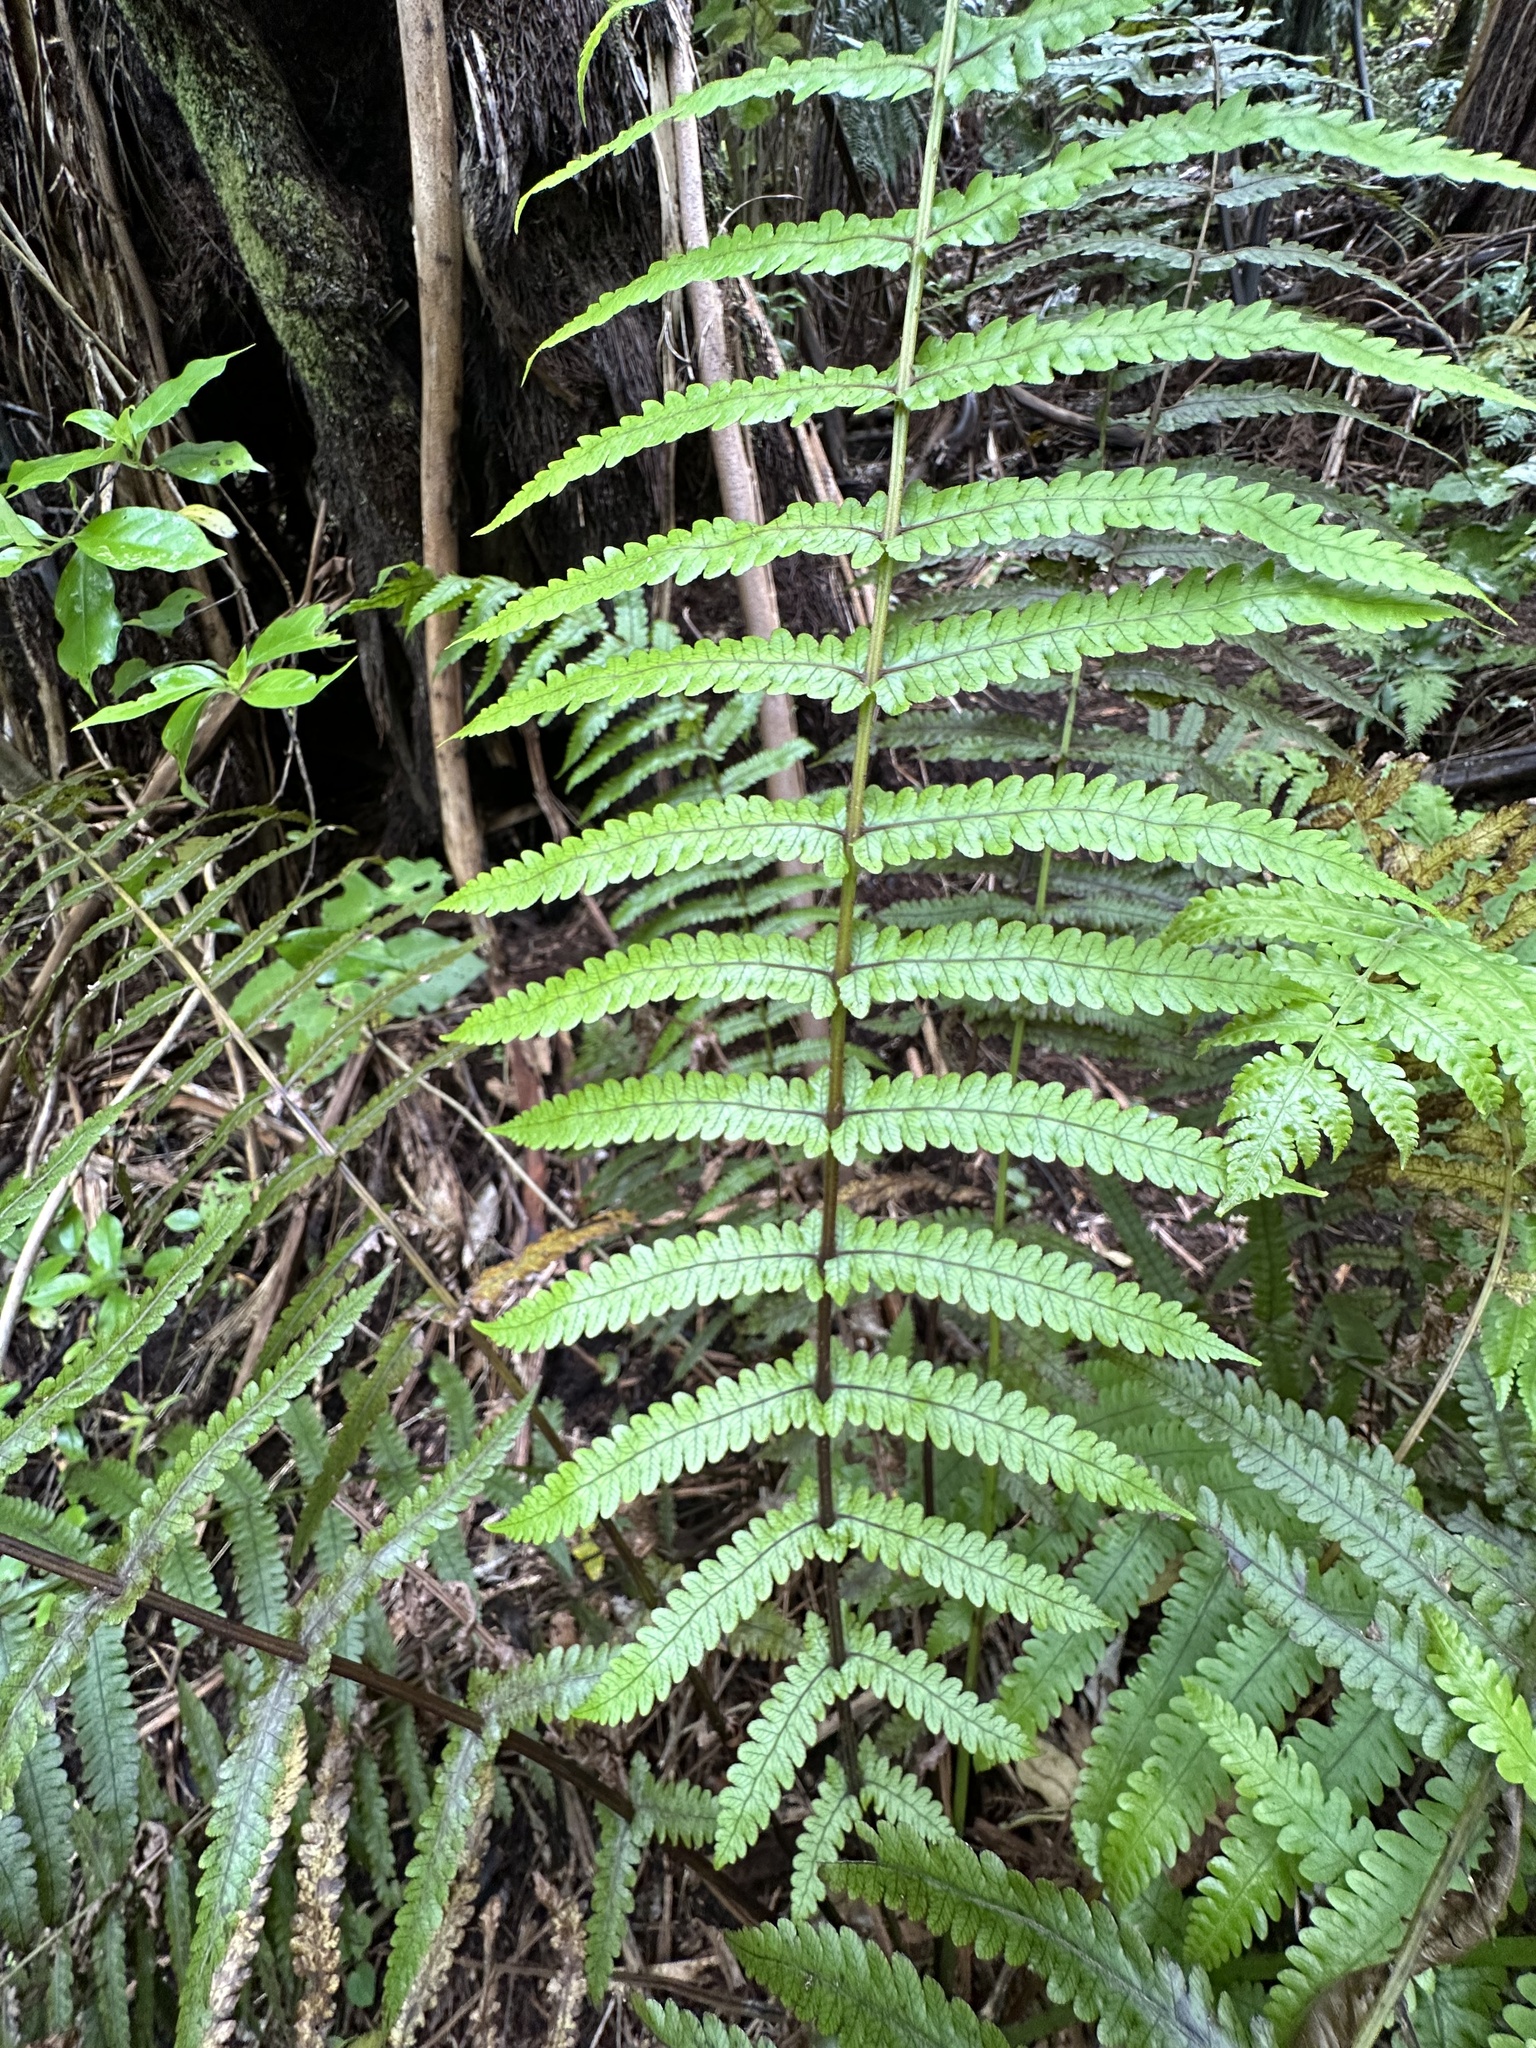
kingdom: Plantae
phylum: Tracheophyta
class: Polypodiopsida
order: Polypodiales
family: Thelypteridaceae
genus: Pakau
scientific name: Pakau pennigera
